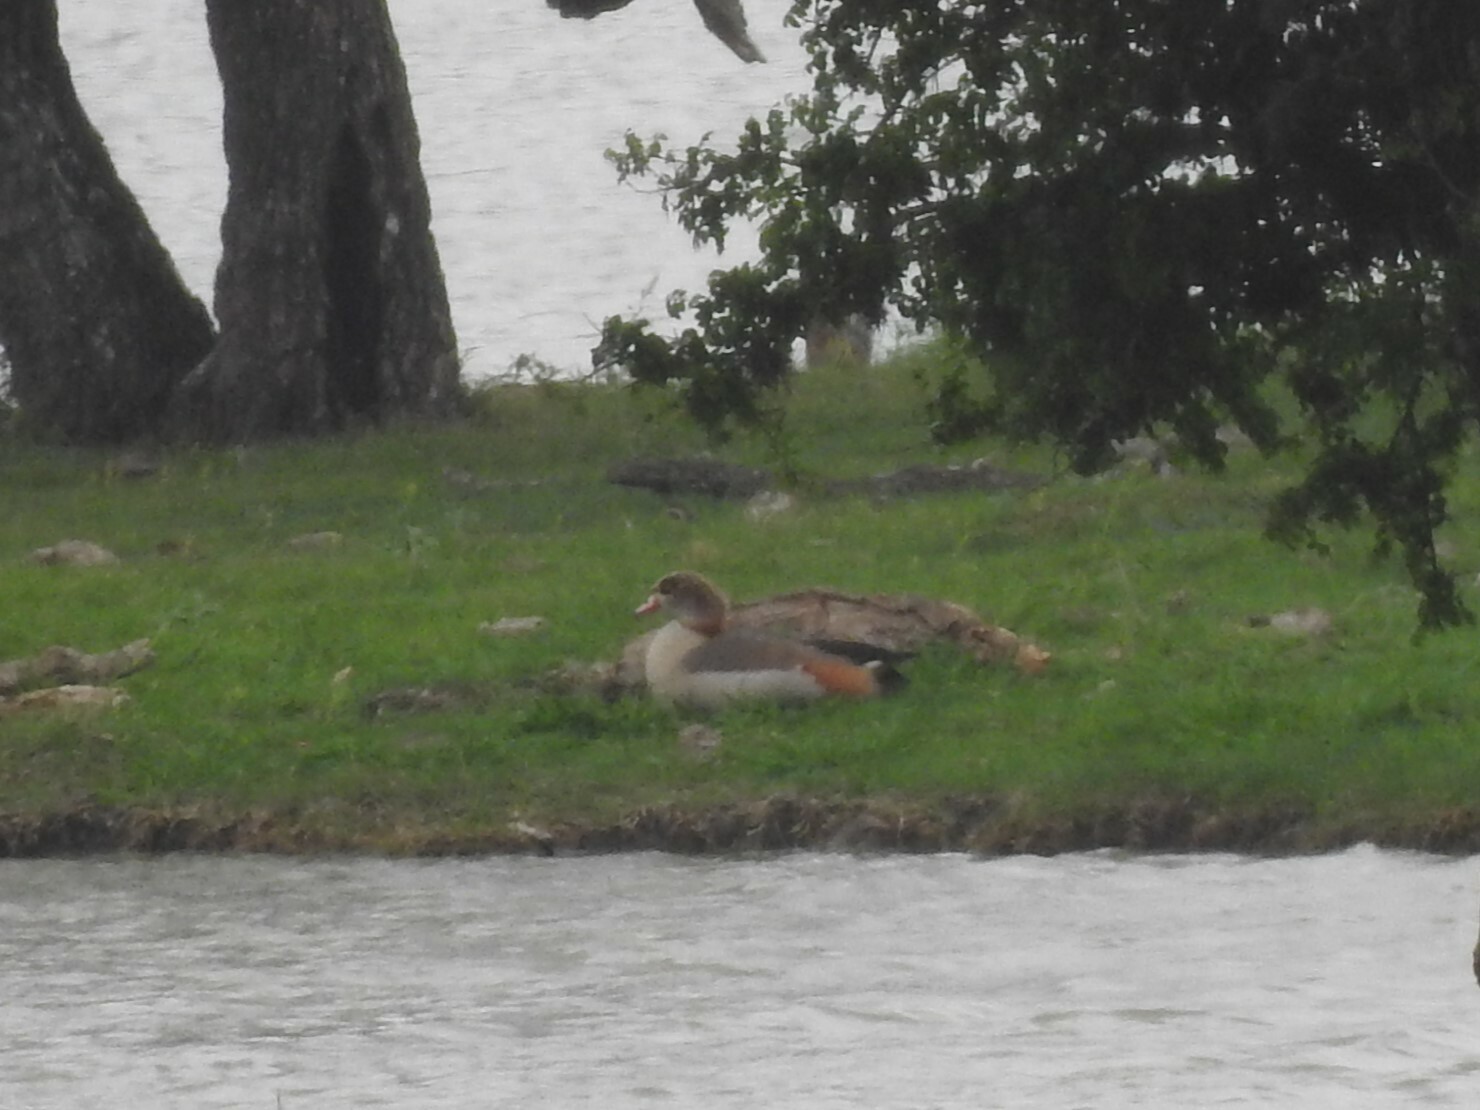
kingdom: Animalia
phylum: Chordata
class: Aves
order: Anseriformes
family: Anatidae
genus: Alopochen
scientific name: Alopochen aegyptiaca
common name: Egyptian goose
